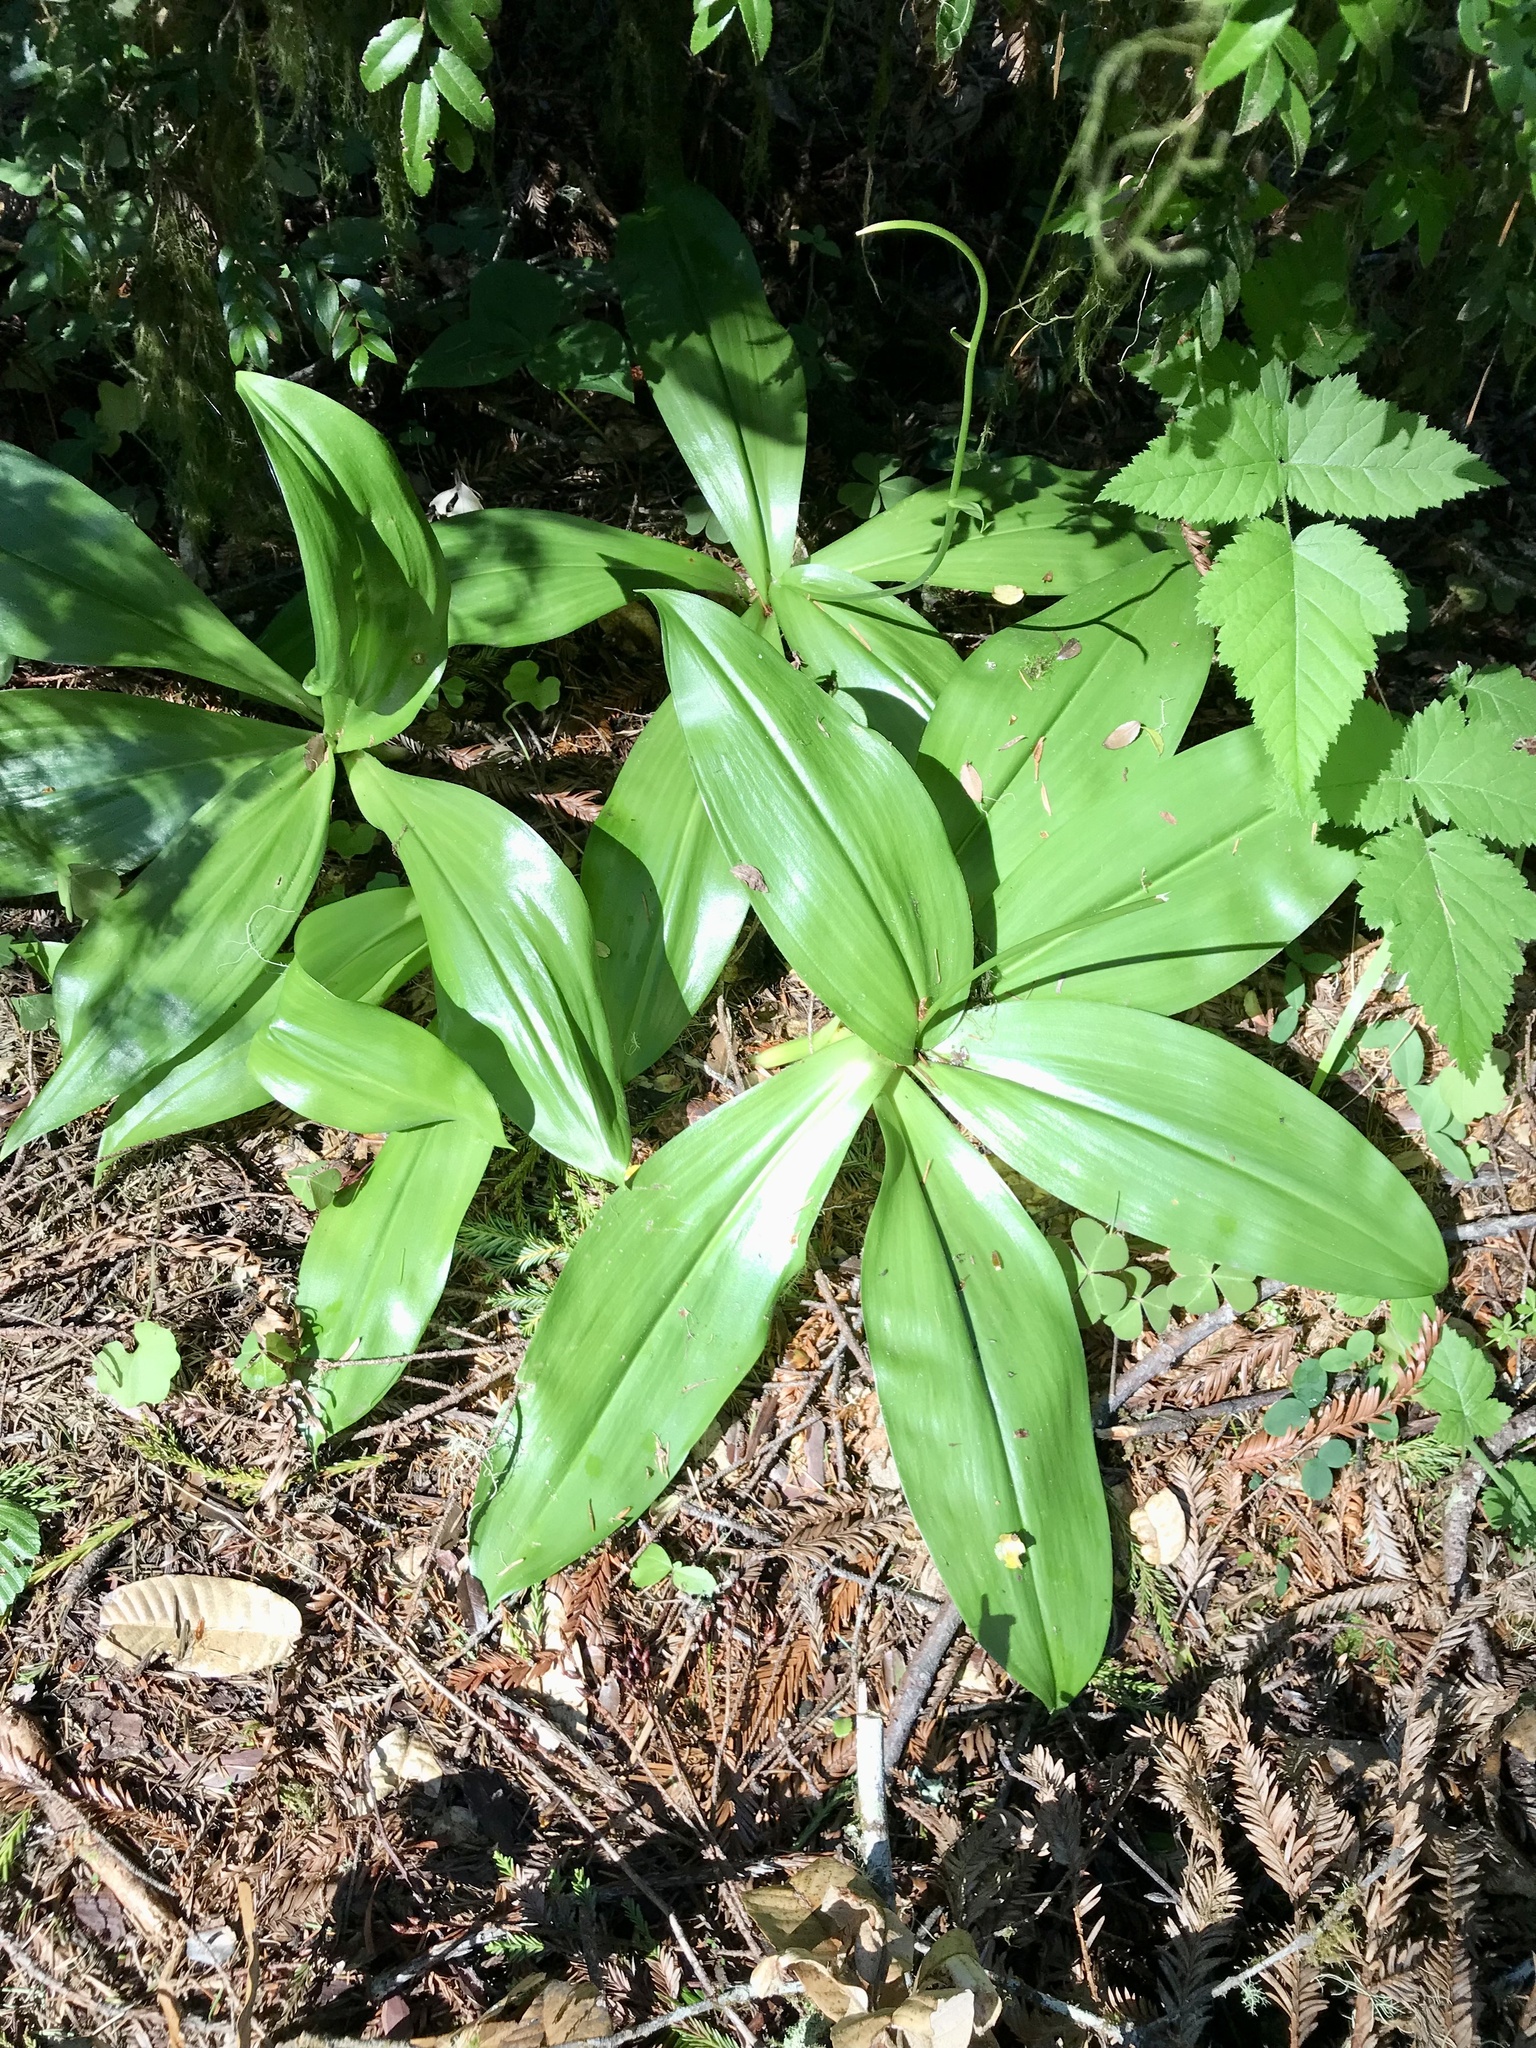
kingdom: Plantae
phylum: Tracheophyta
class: Liliopsida
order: Liliales
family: Liliaceae
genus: Clintonia
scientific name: Clintonia andrewsiana
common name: Red clintonia
